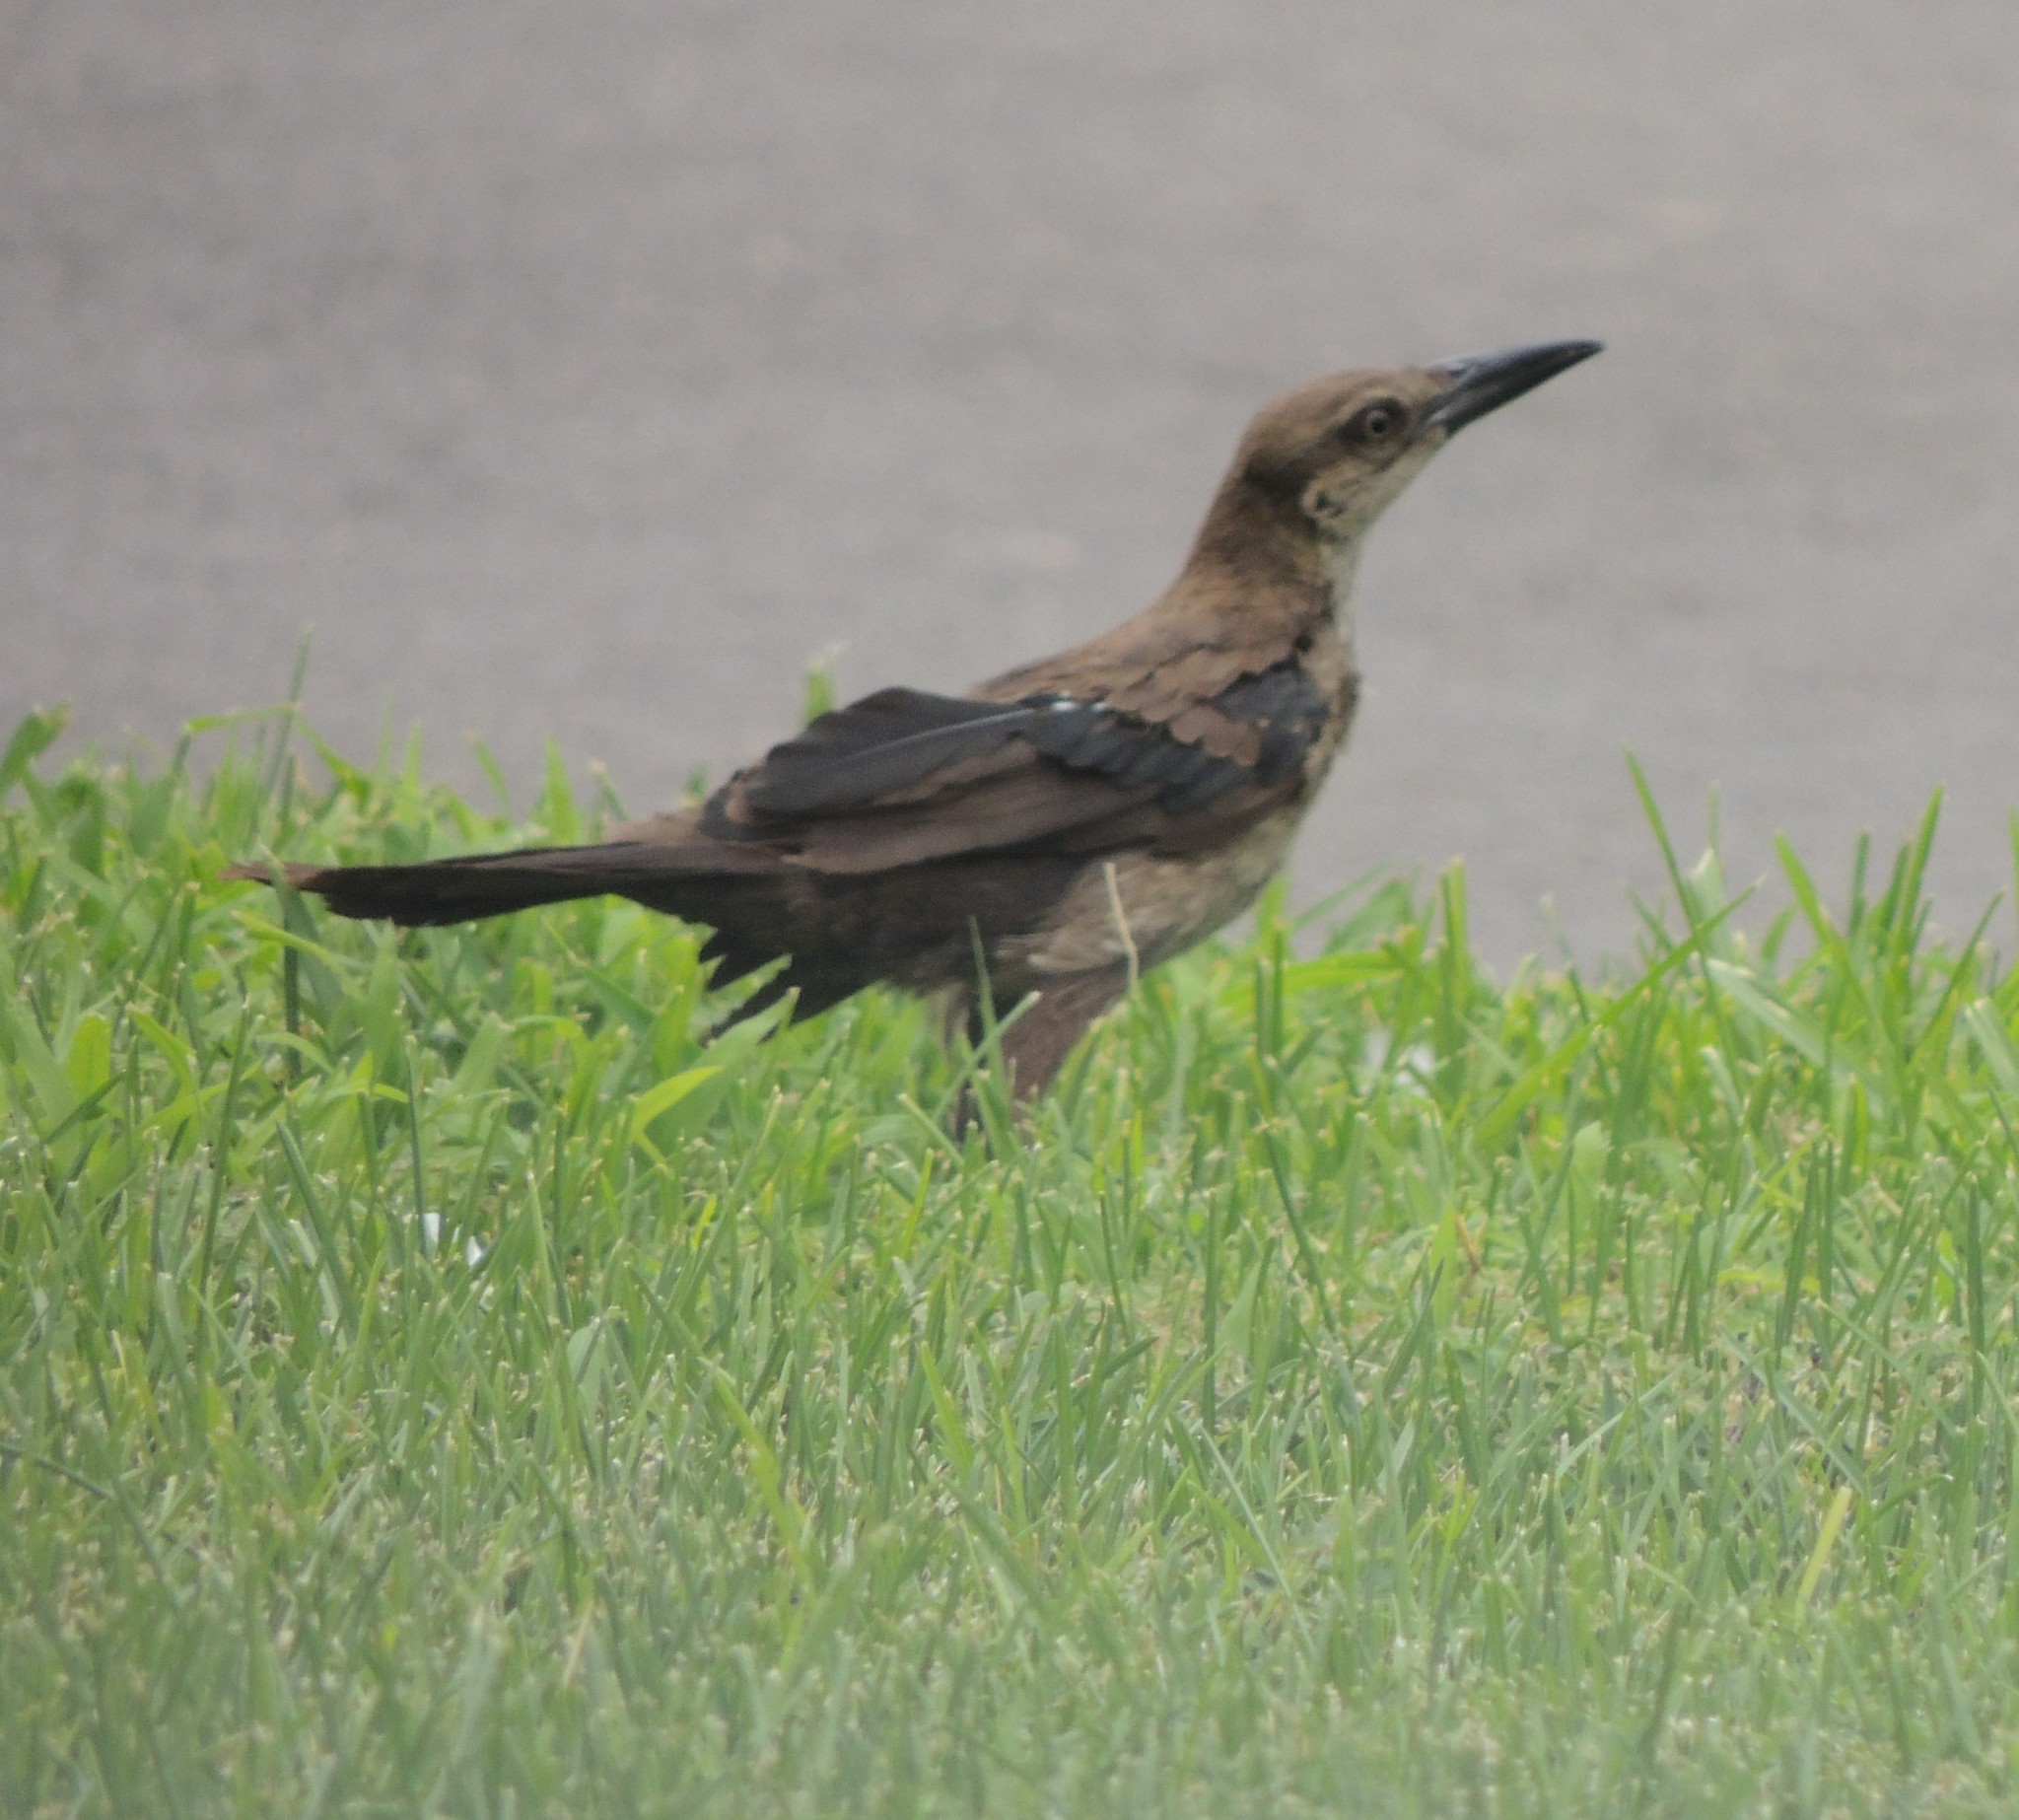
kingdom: Animalia
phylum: Chordata
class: Aves
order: Passeriformes
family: Icteridae
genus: Quiscalus
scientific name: Quiscalus mexicanus
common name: Great-tailed grackle
